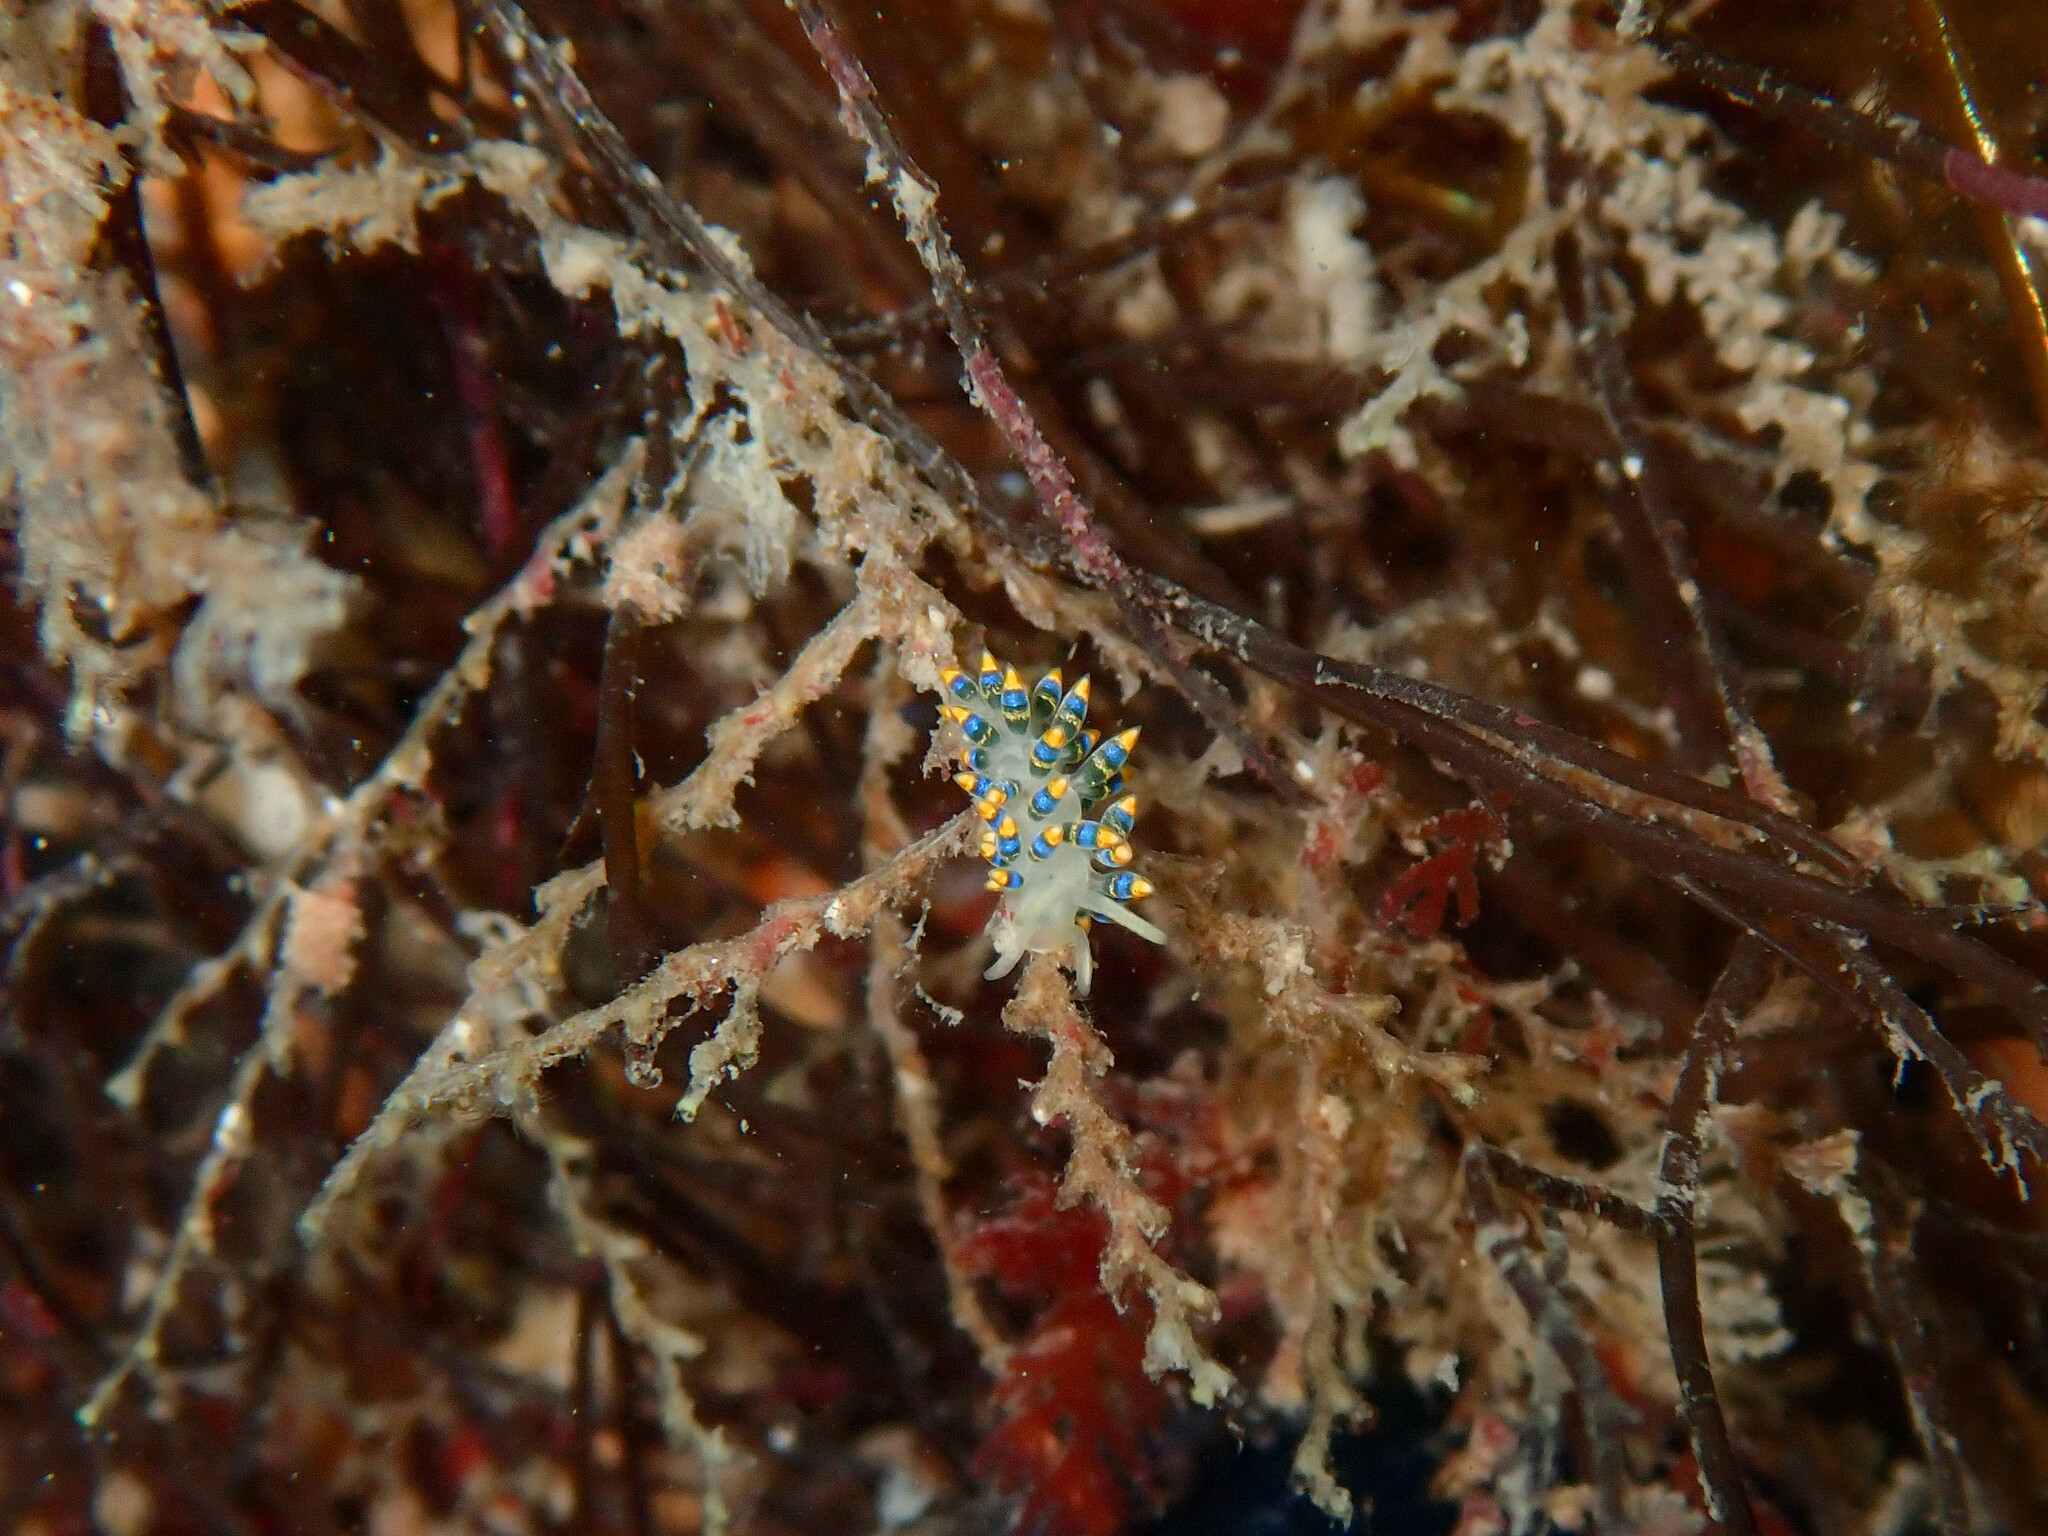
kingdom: Animalia
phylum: Mollusca
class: Gastropoda
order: Nudibranchia
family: Trinchesiidae
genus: Trinchesia
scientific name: Trinchesia cuanensis
